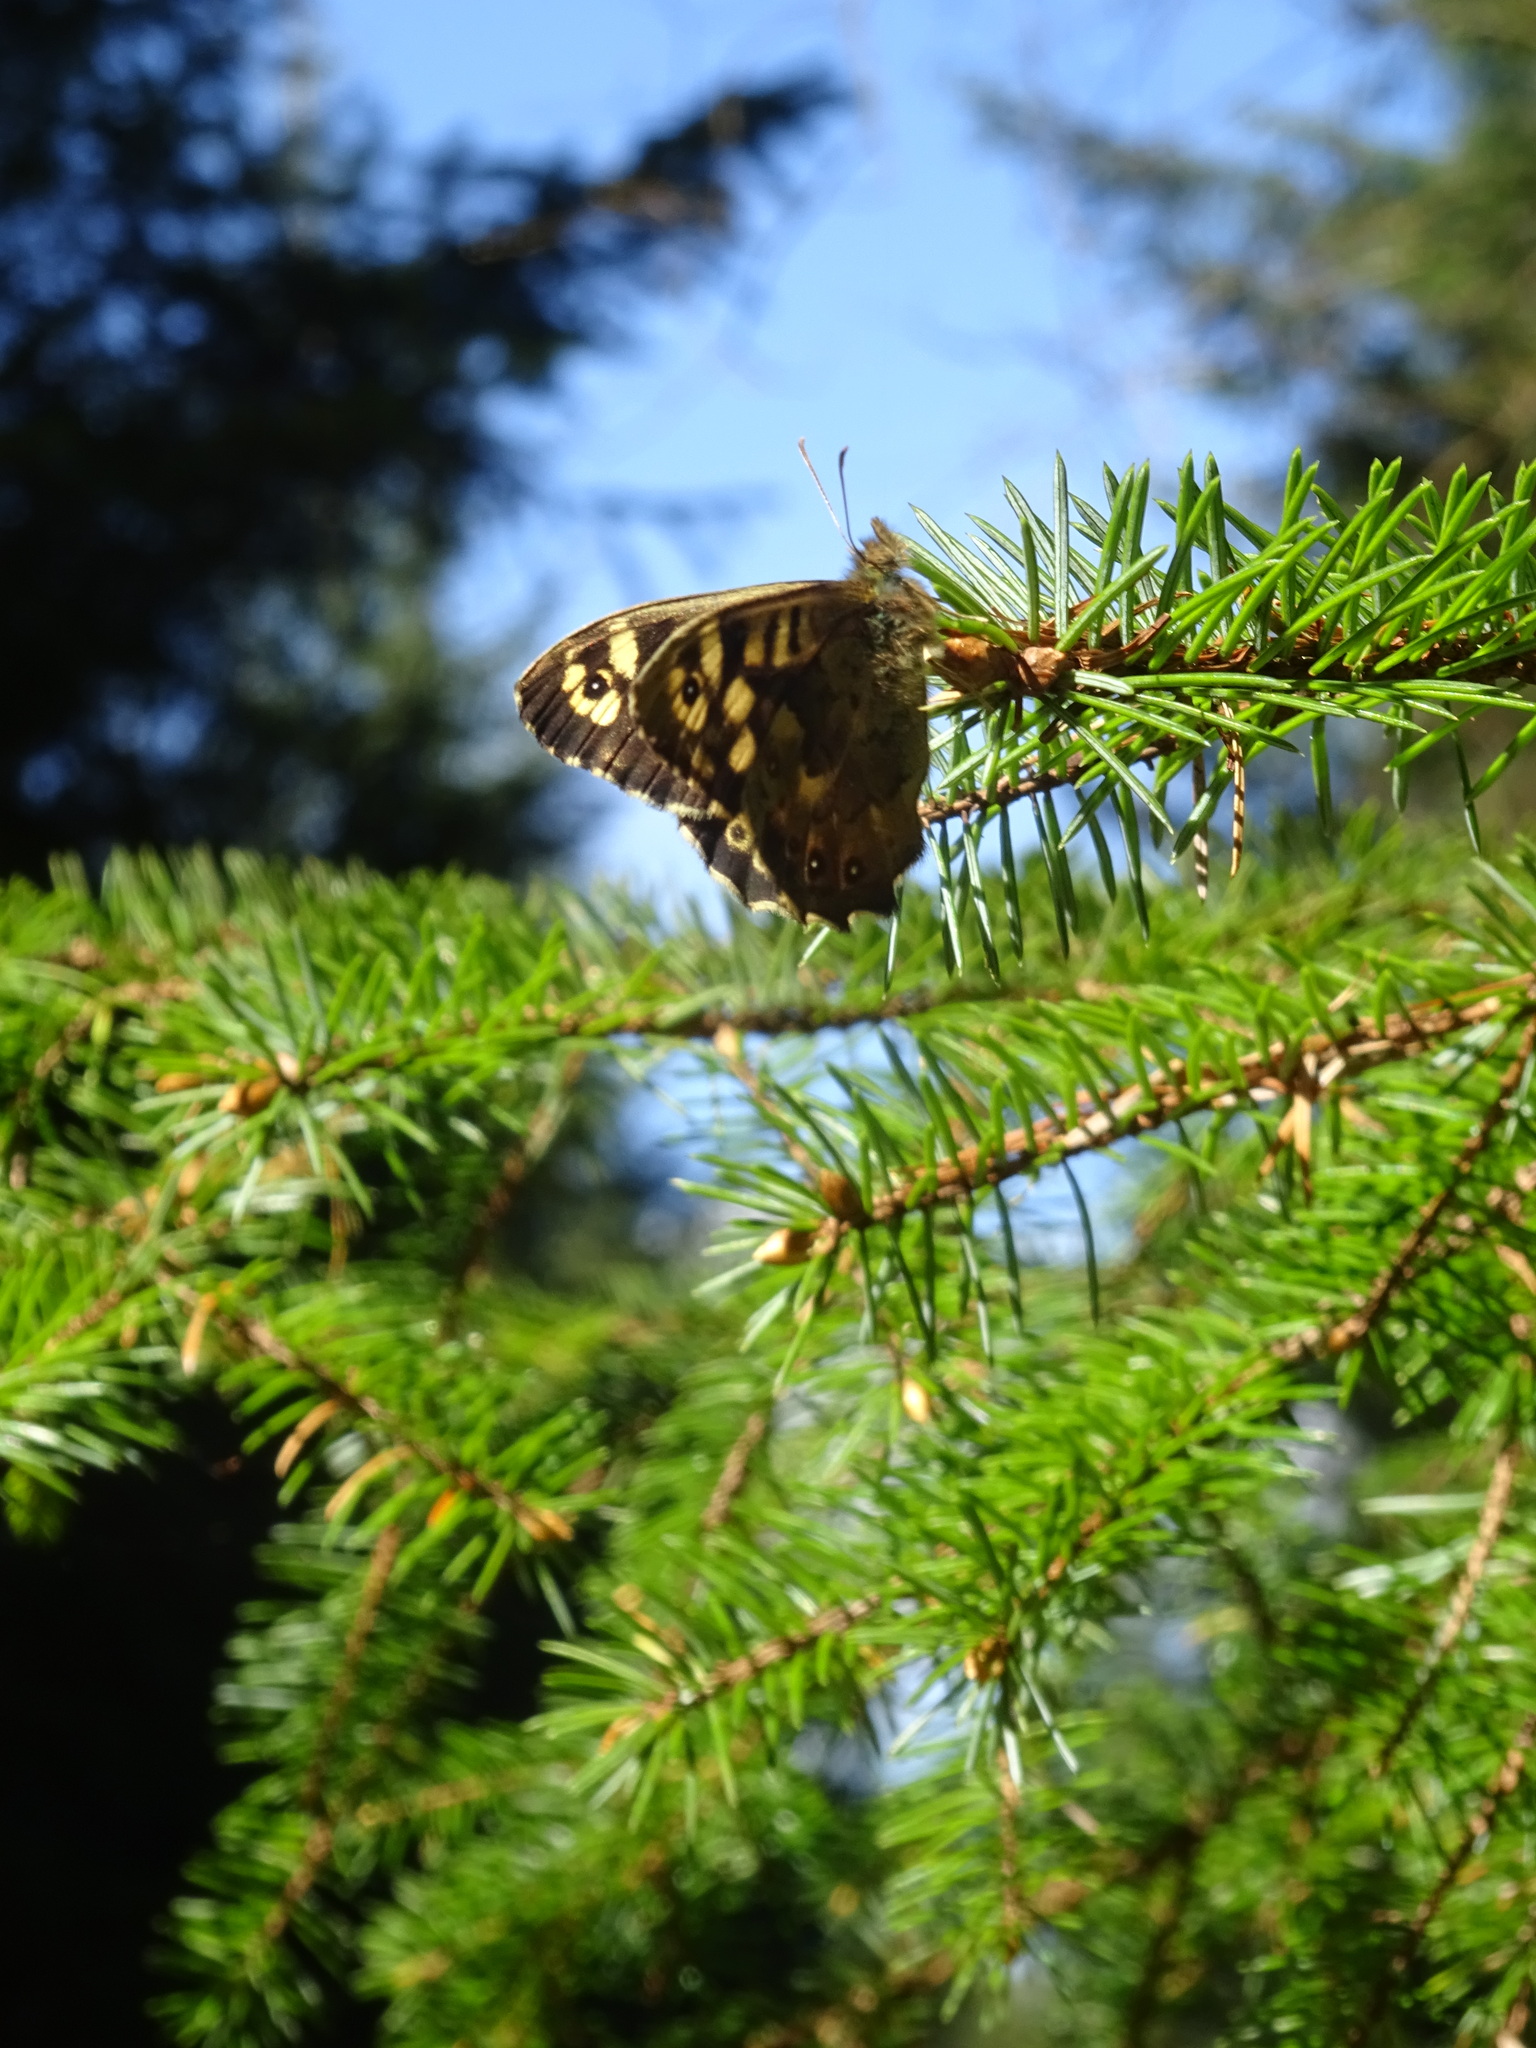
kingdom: Animalia
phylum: Arthropoda
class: Insecta
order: Lepidoptera
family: Nymphalidae
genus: Pararge
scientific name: Pararge aegeria
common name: Speckled wood
